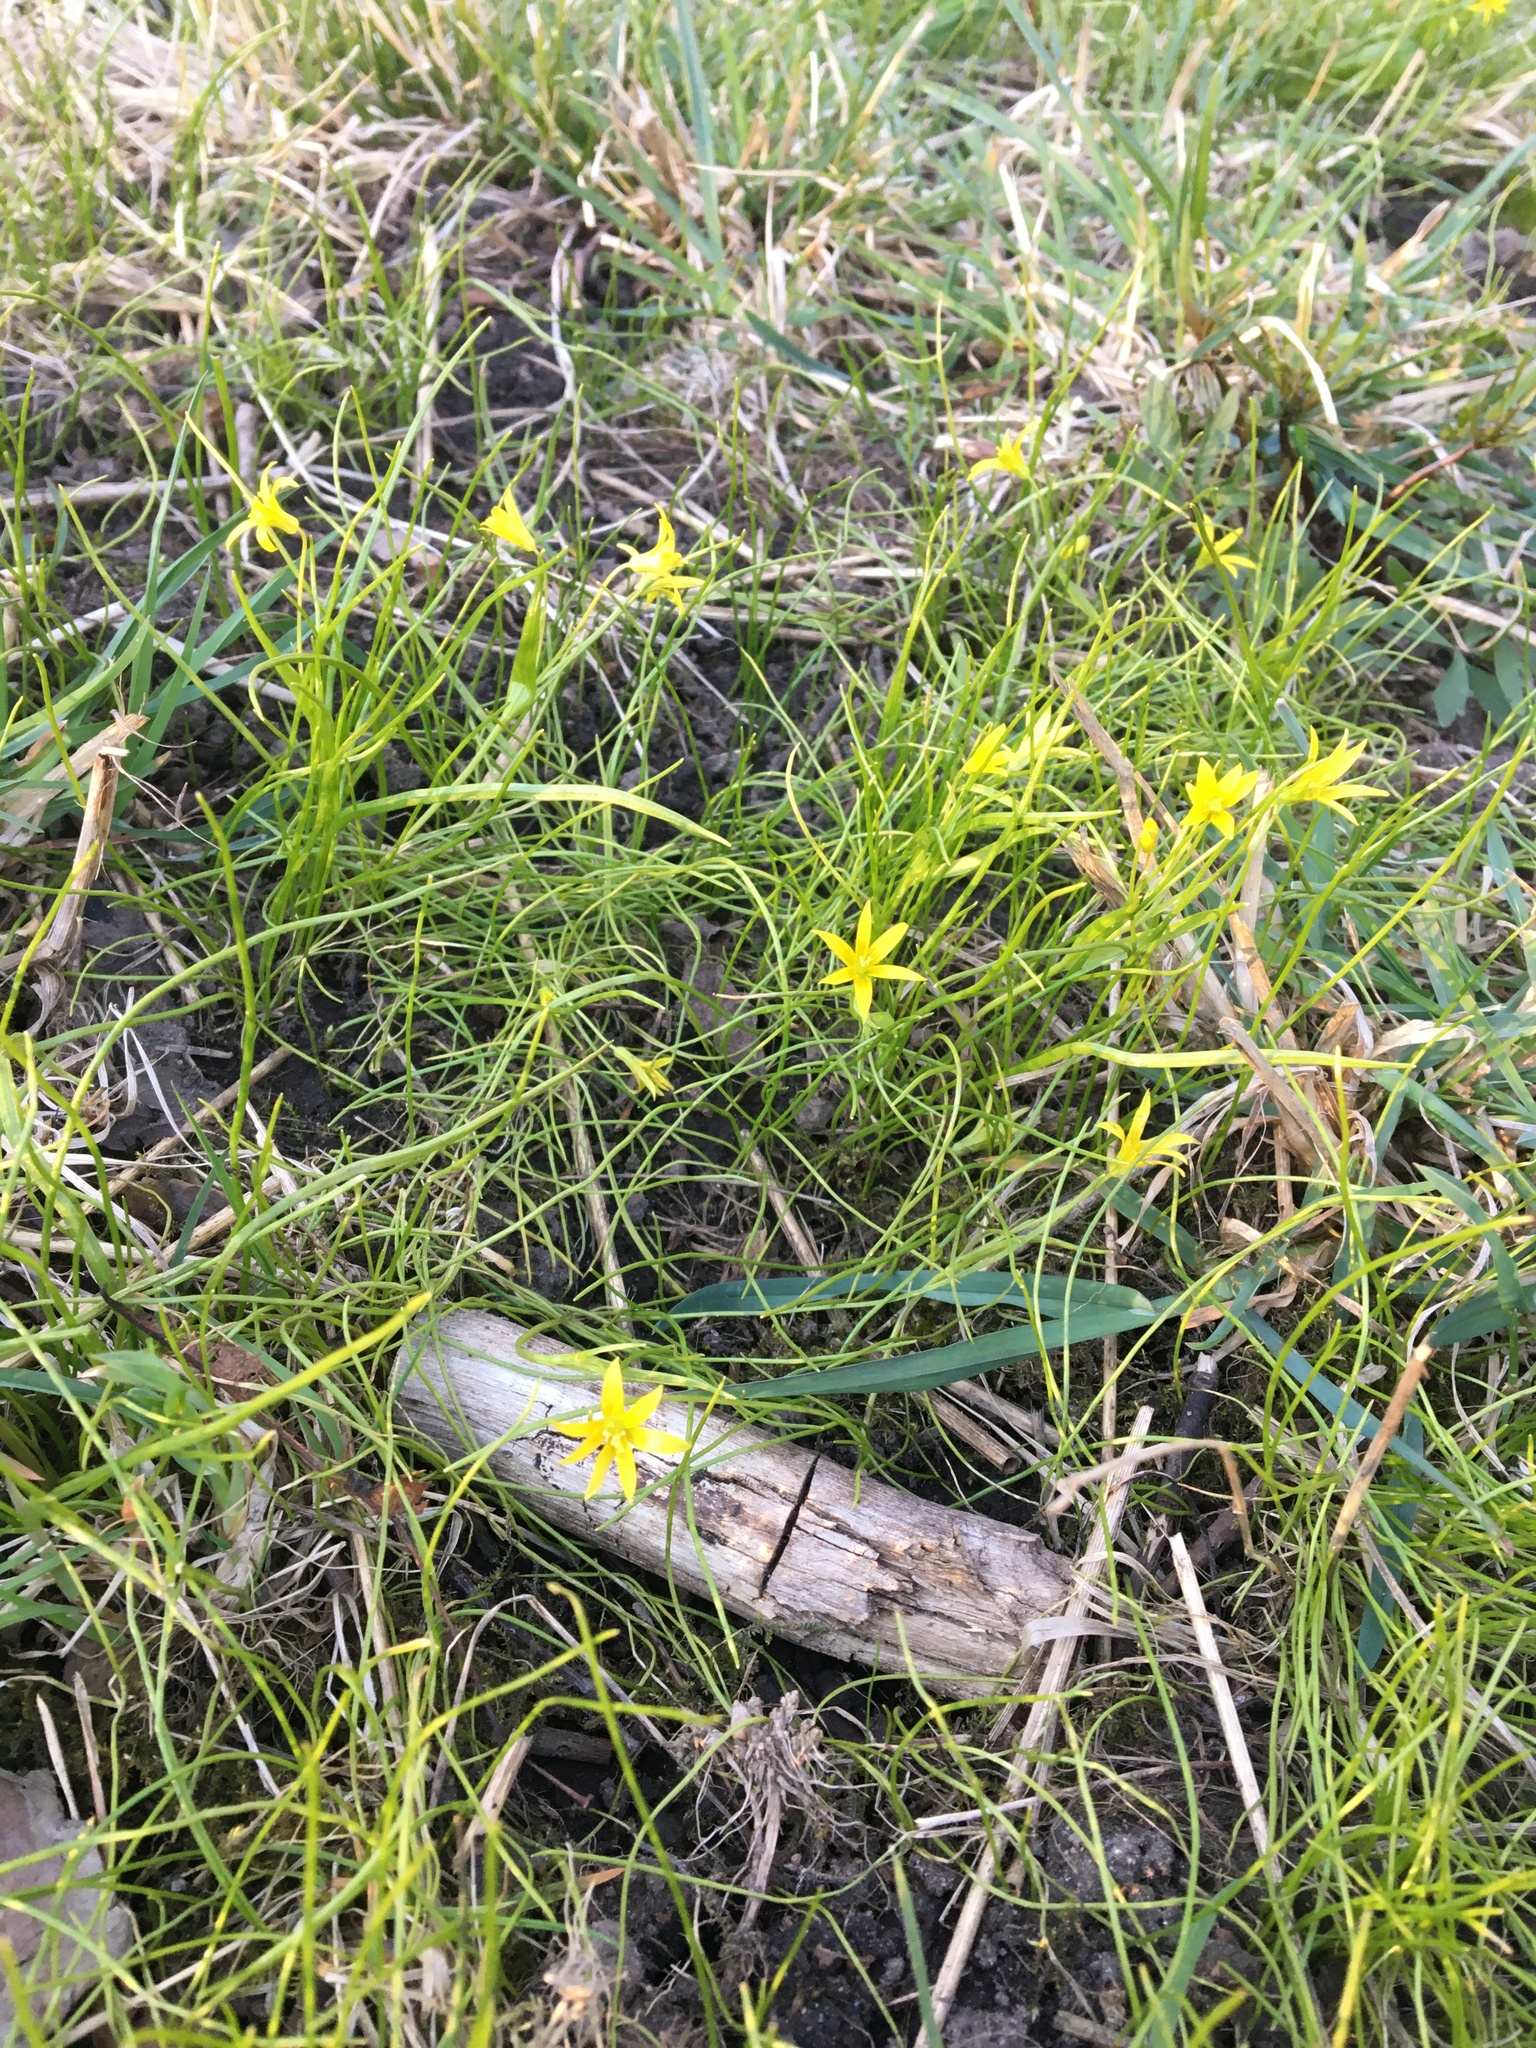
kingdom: Plantae
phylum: Tracheophyta
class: Liliopsida
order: Liliales
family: Liliaceae
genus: Gagea
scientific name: Gagea minima
